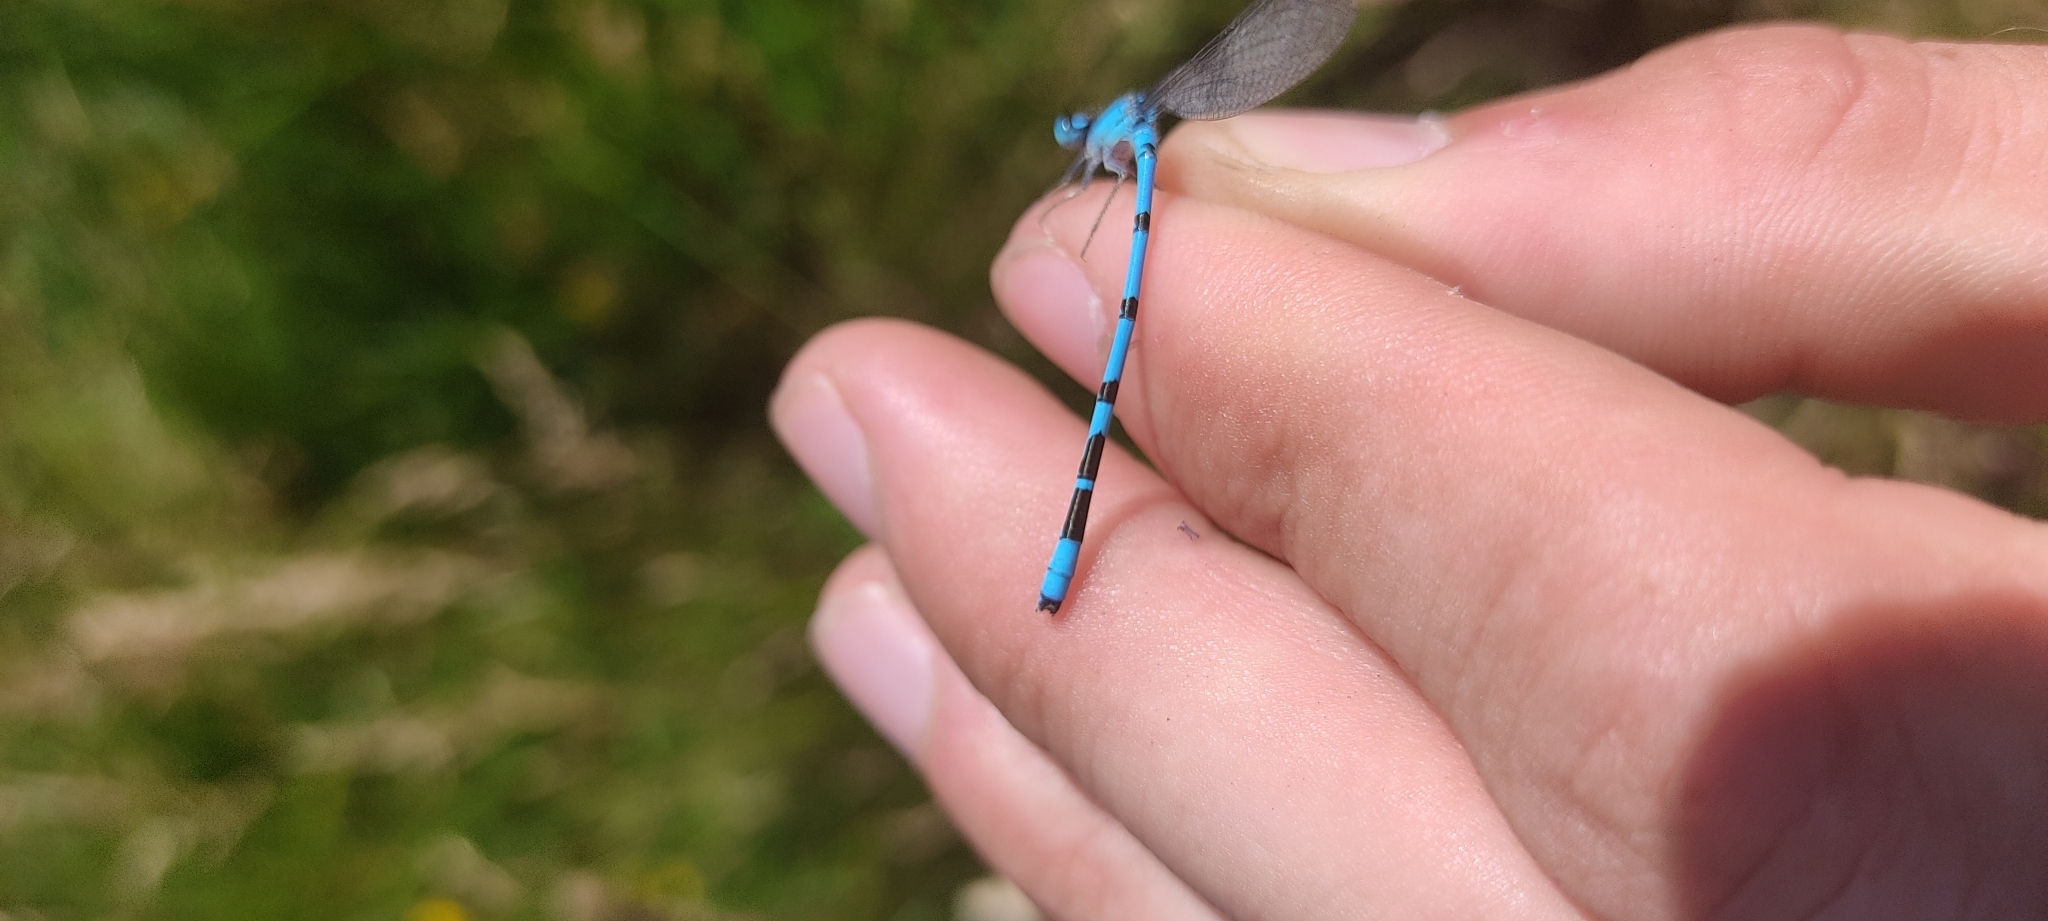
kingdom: Animalia
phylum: Arthropoda
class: Insecta
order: Odonata
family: Coenagrionidae
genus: Enallagma
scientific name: Enallagma cyathigerum
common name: Common blue damselfly
